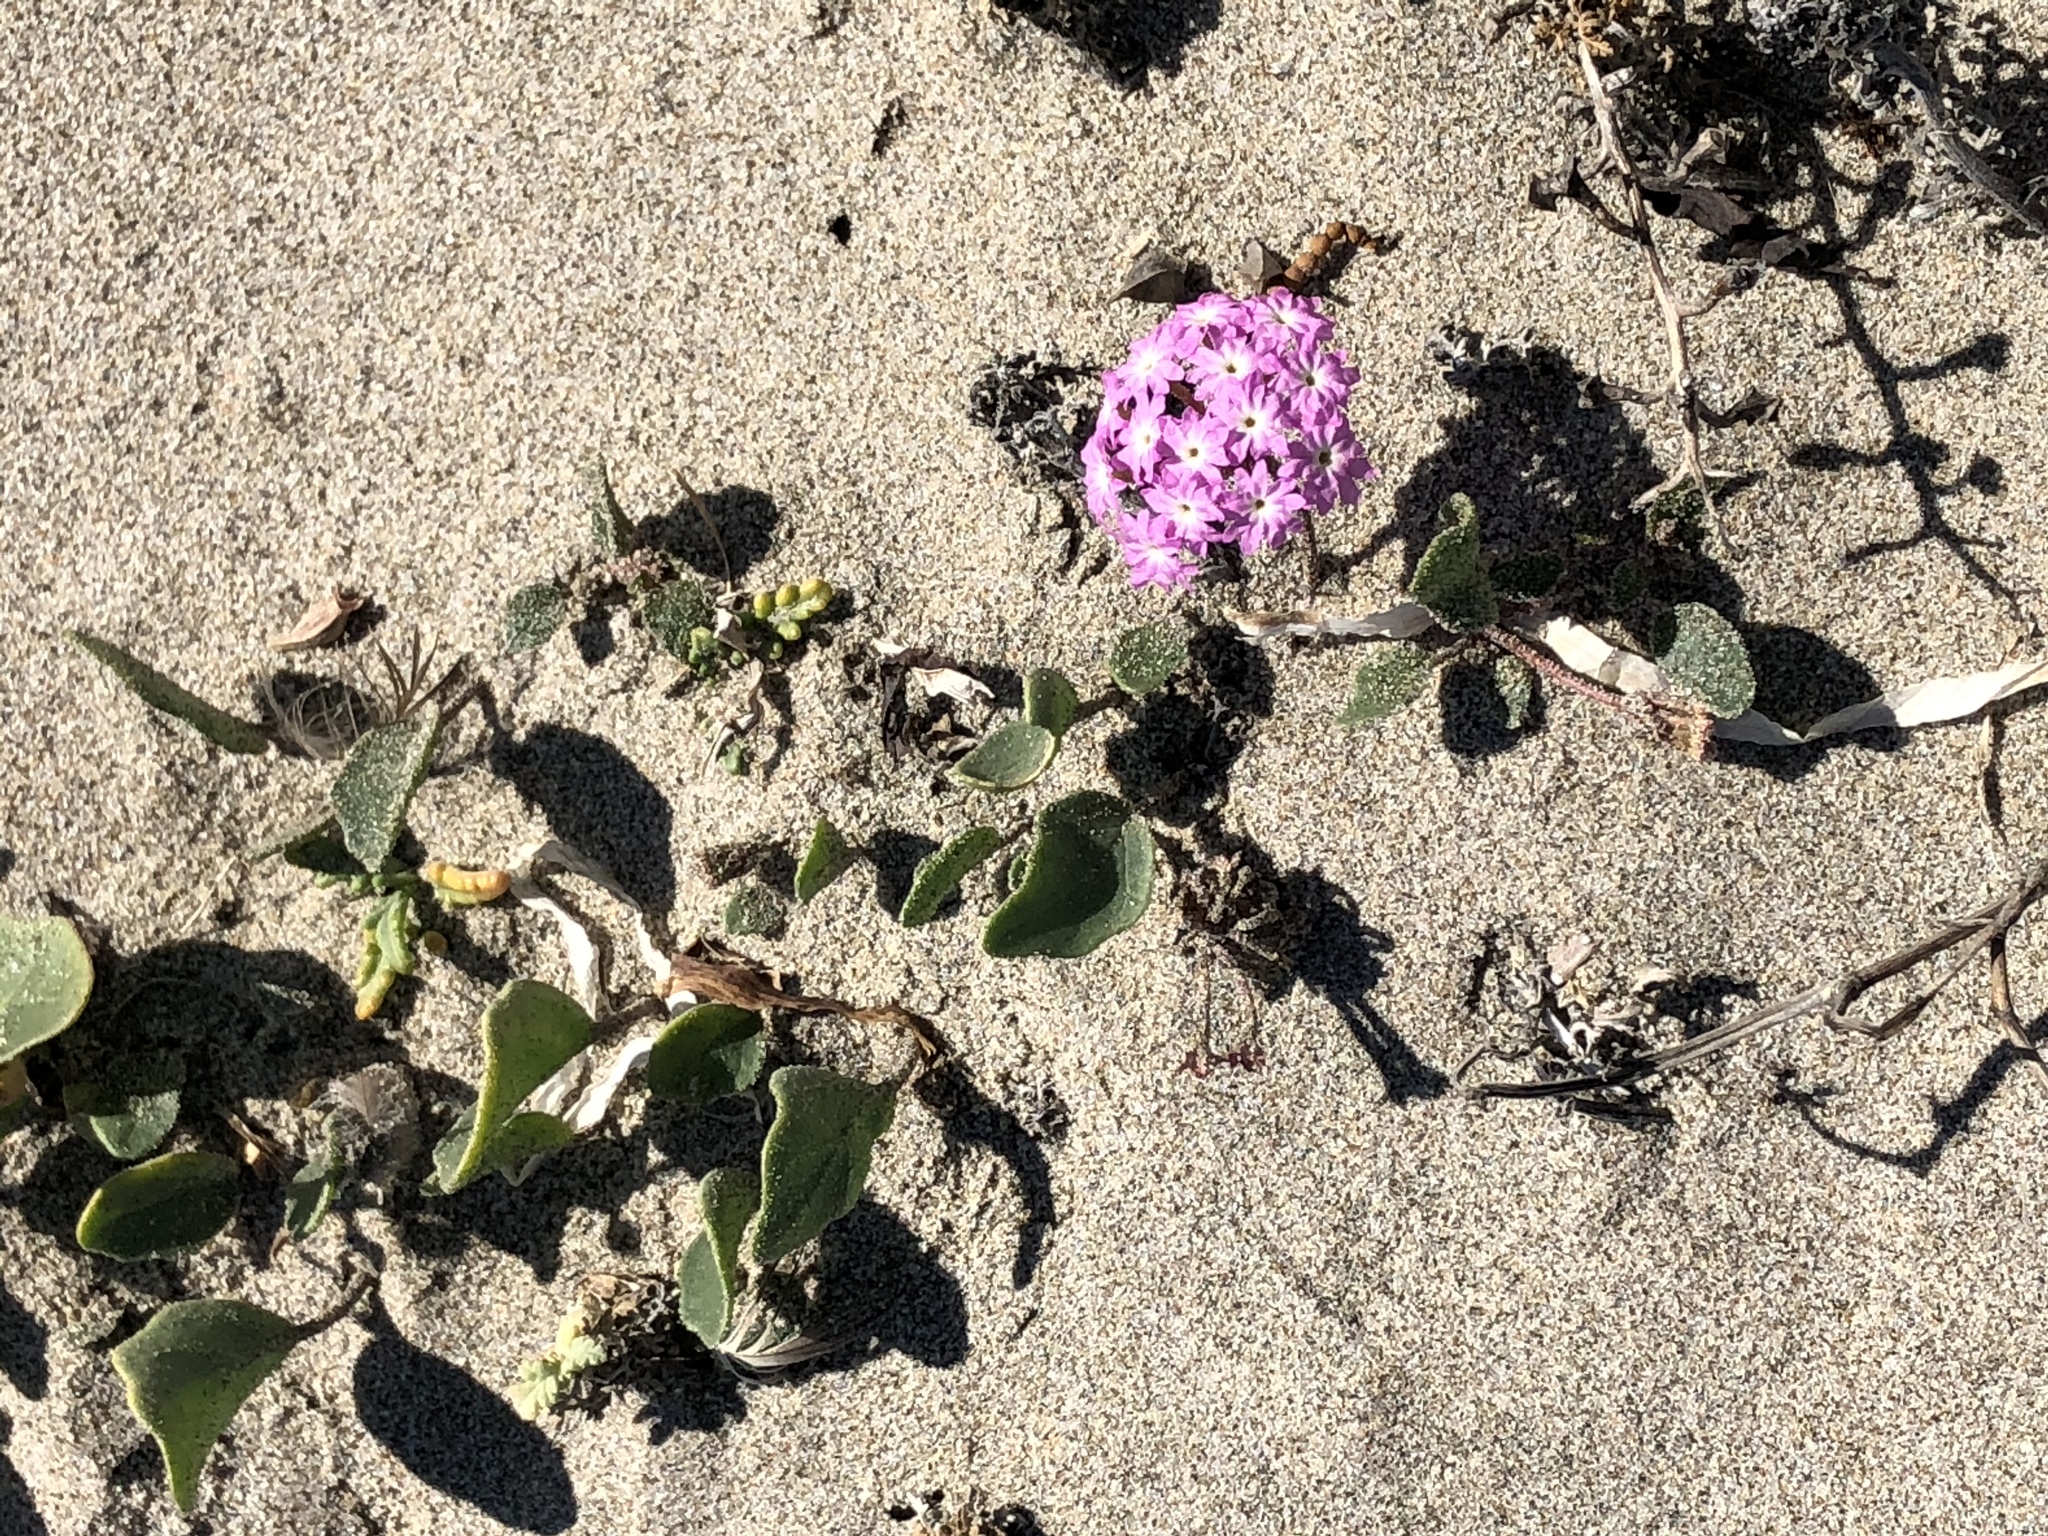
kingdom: Plantae
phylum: Tracheophyta
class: Magnoliopsida
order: Caryophyllales
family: Nyctaginaceae
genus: Abronia
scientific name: Abronia umbellata
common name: Sand-verbena
